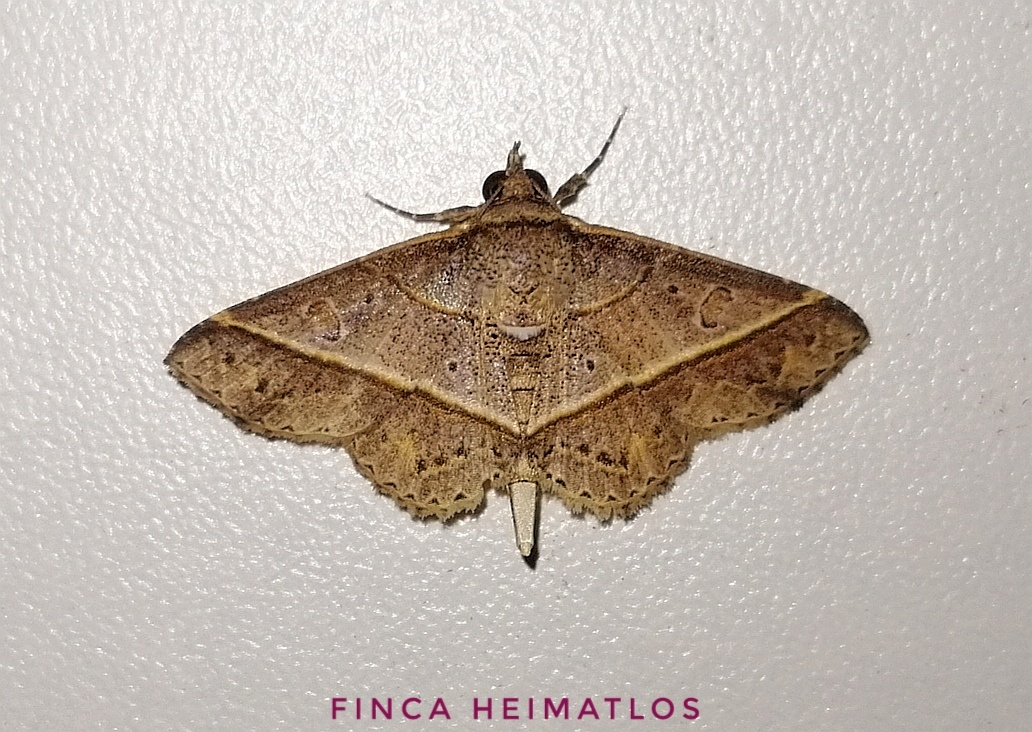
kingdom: Animalia
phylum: Arthropoda
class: Insecta
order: Lepidoptera
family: Erebidae
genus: Antiblemma
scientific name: Antiblemma ceras
